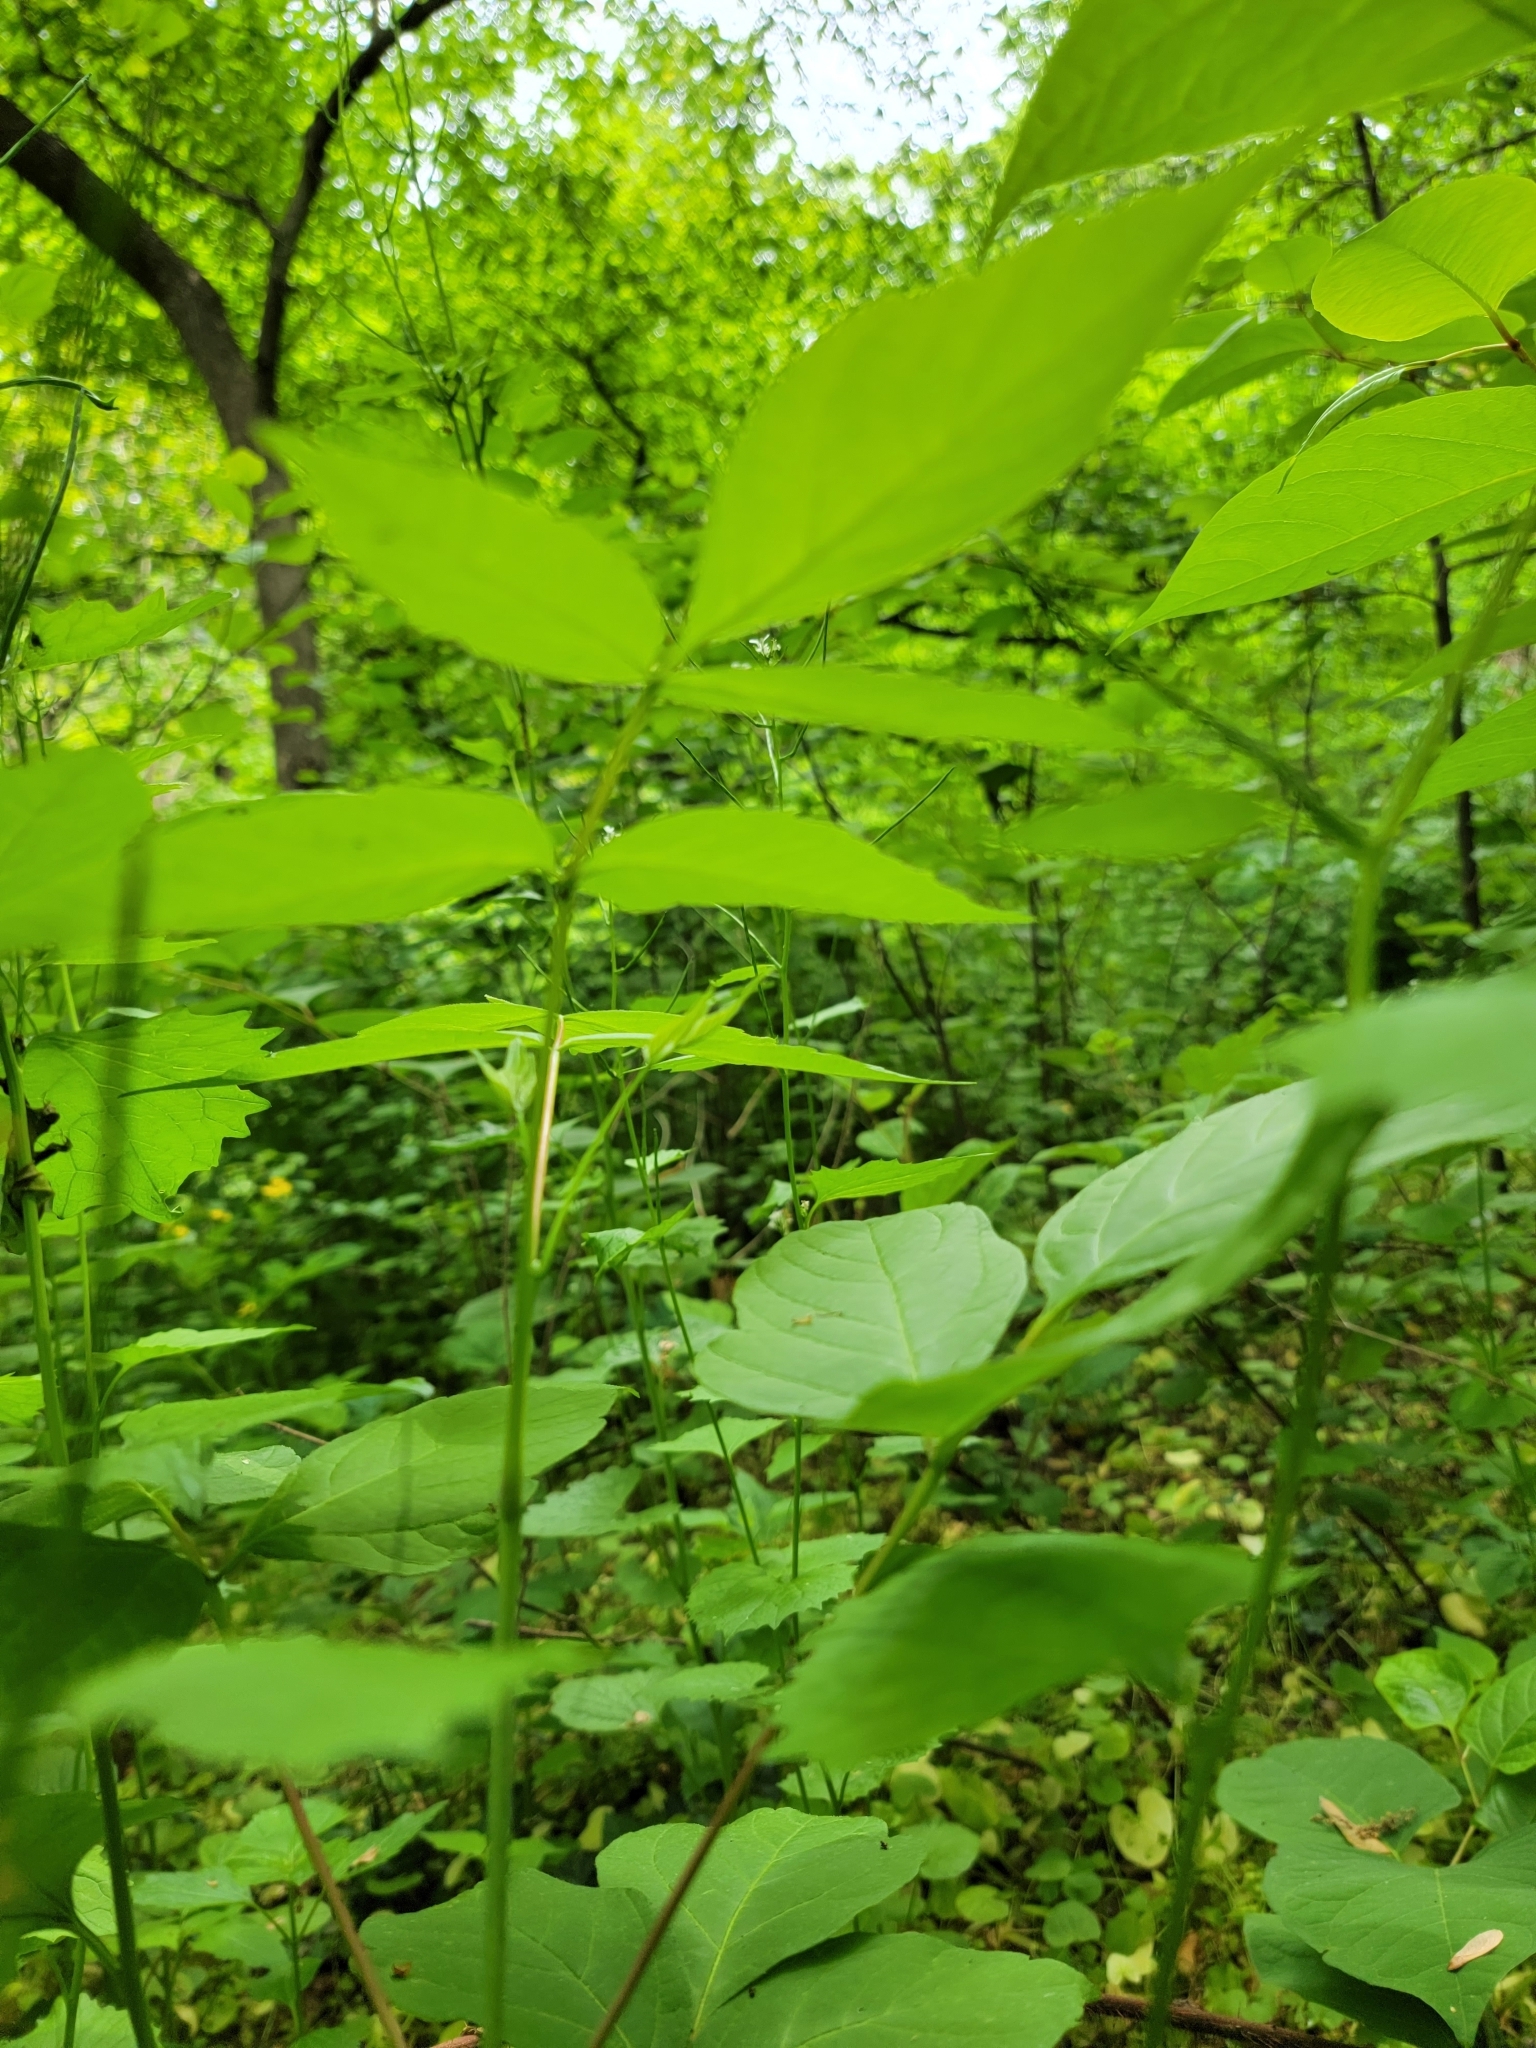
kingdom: Plantae
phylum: Tracheophyta
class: Magnoliopsida
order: Sapindales
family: Sapindaceae
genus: Acer
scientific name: Acer negundo
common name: Ashleaf maple
